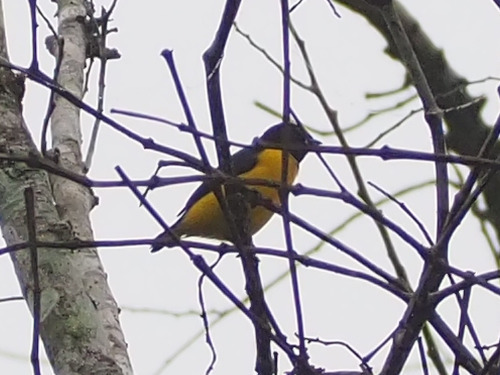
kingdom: Animalia
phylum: Chordata
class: Aves
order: Passeriformes
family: Fringillidae
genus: Euphonia
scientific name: Euphonia affinis
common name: Scrub euphonia
